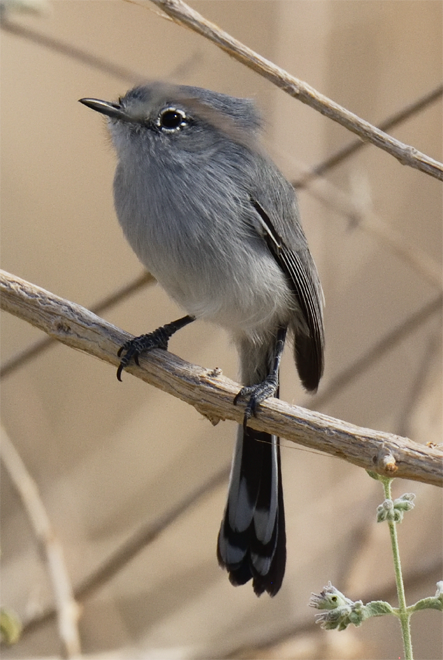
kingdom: Animalia
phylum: Chordata
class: Aves
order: Passeriformes
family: Polioptilidae
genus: Polioptila
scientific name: Polioptila melanura
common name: Black-tailed gnatcatcher
